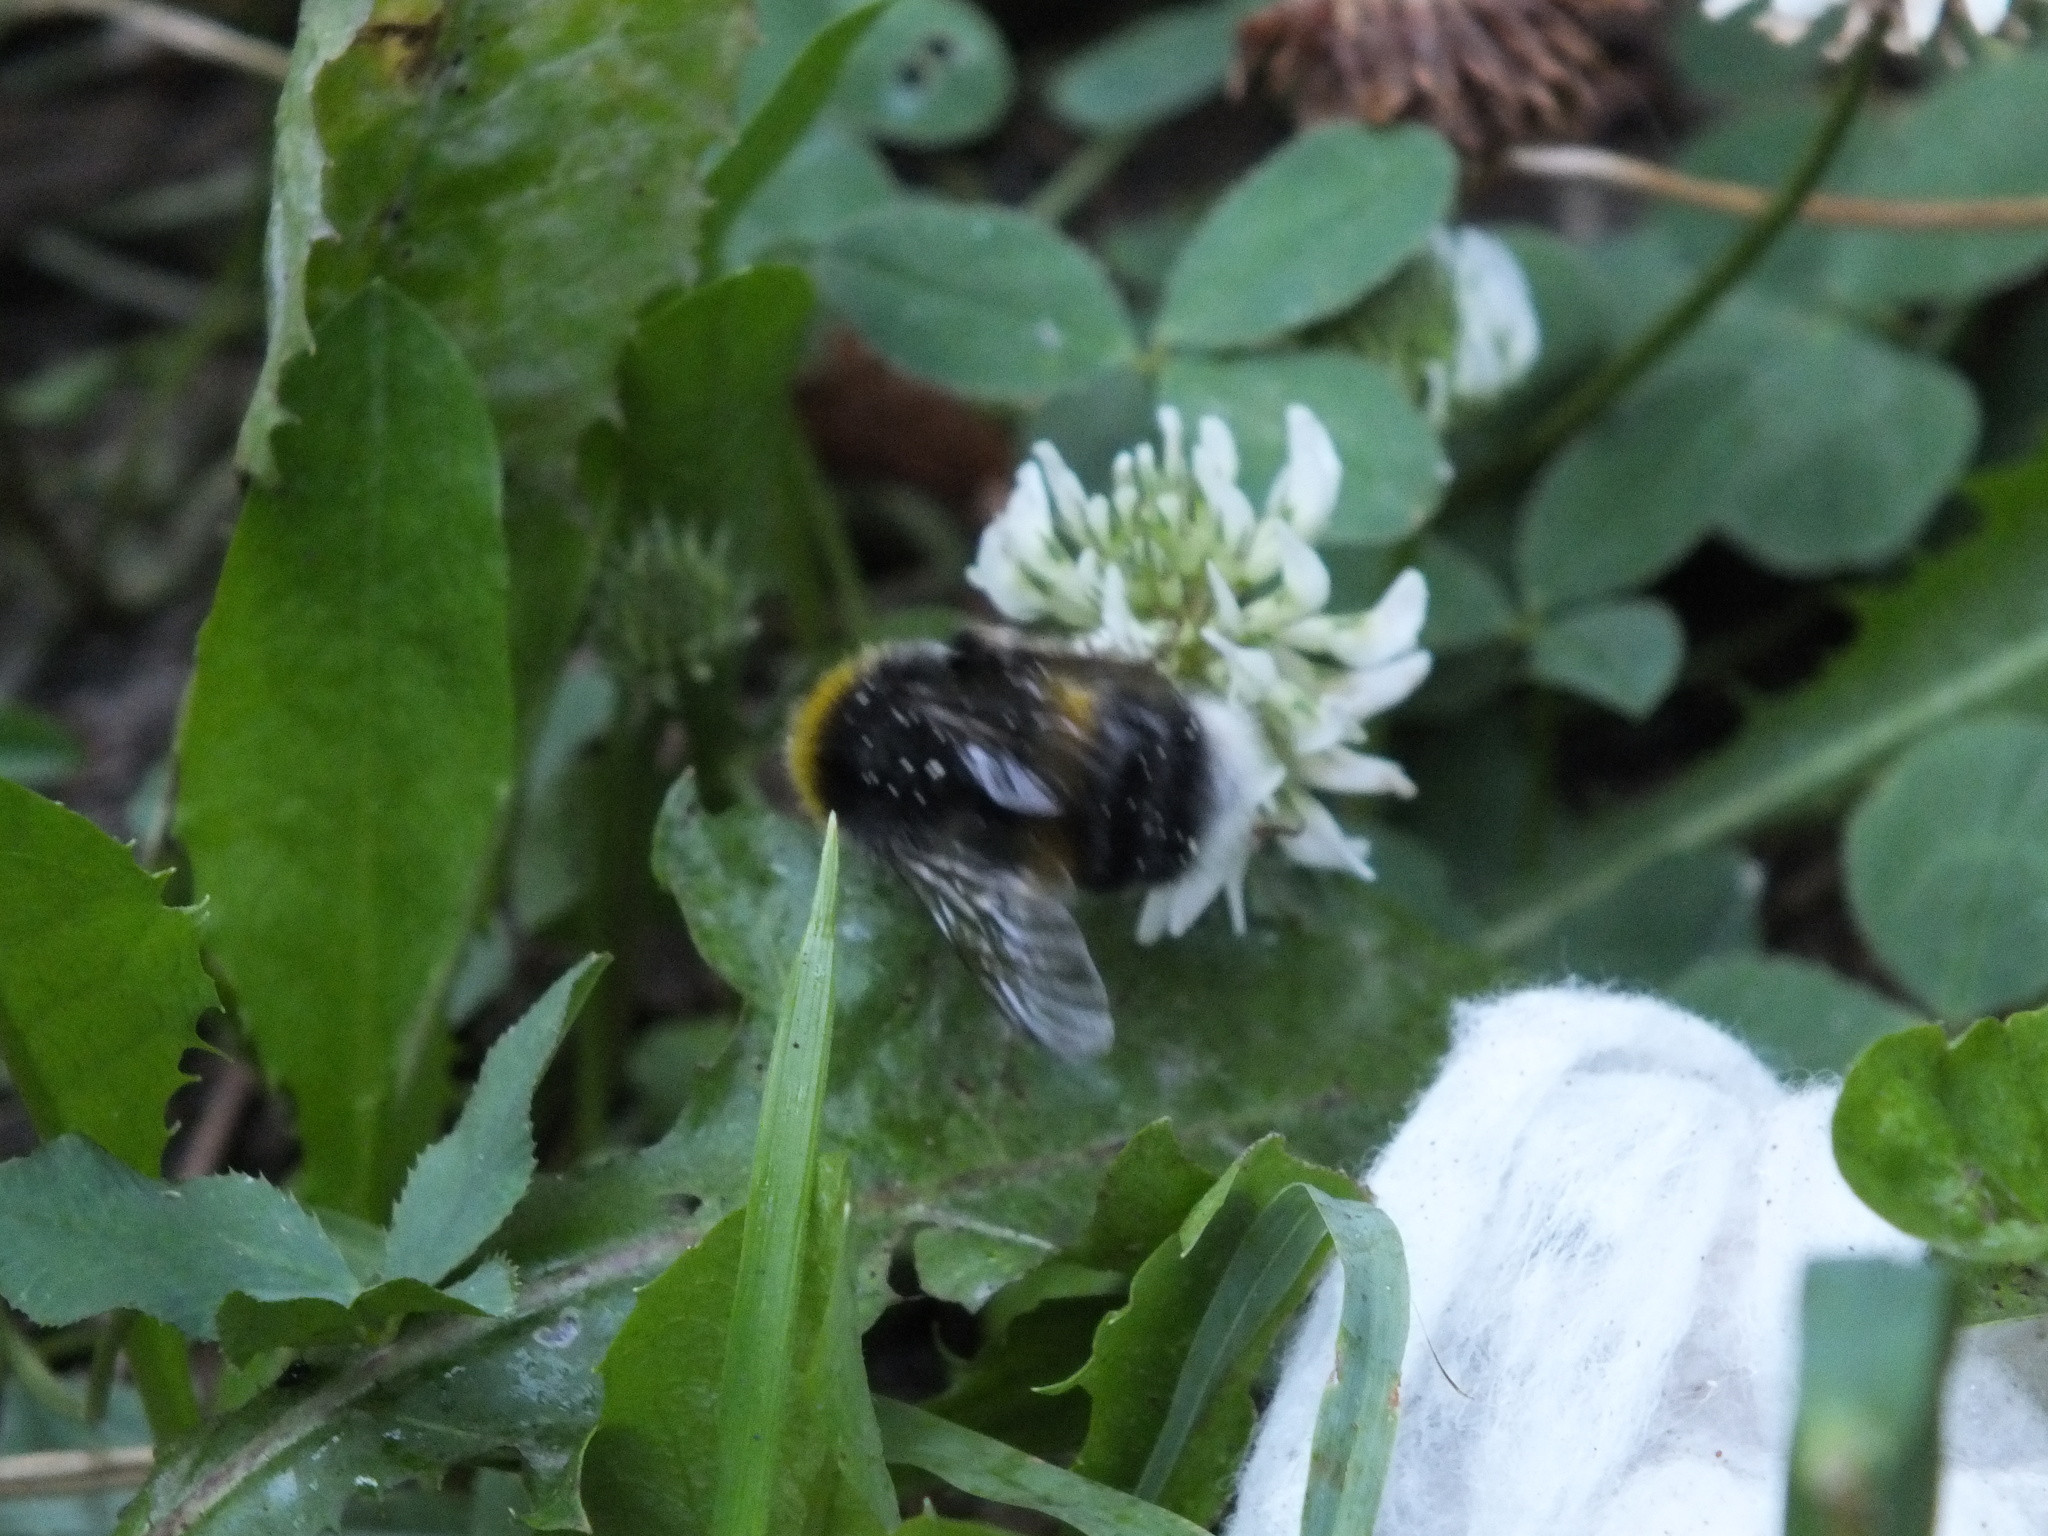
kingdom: Animalia
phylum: Arthropoda
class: Insecta
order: Hymenoptera
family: Apidae
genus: Bombus
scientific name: Bombus
